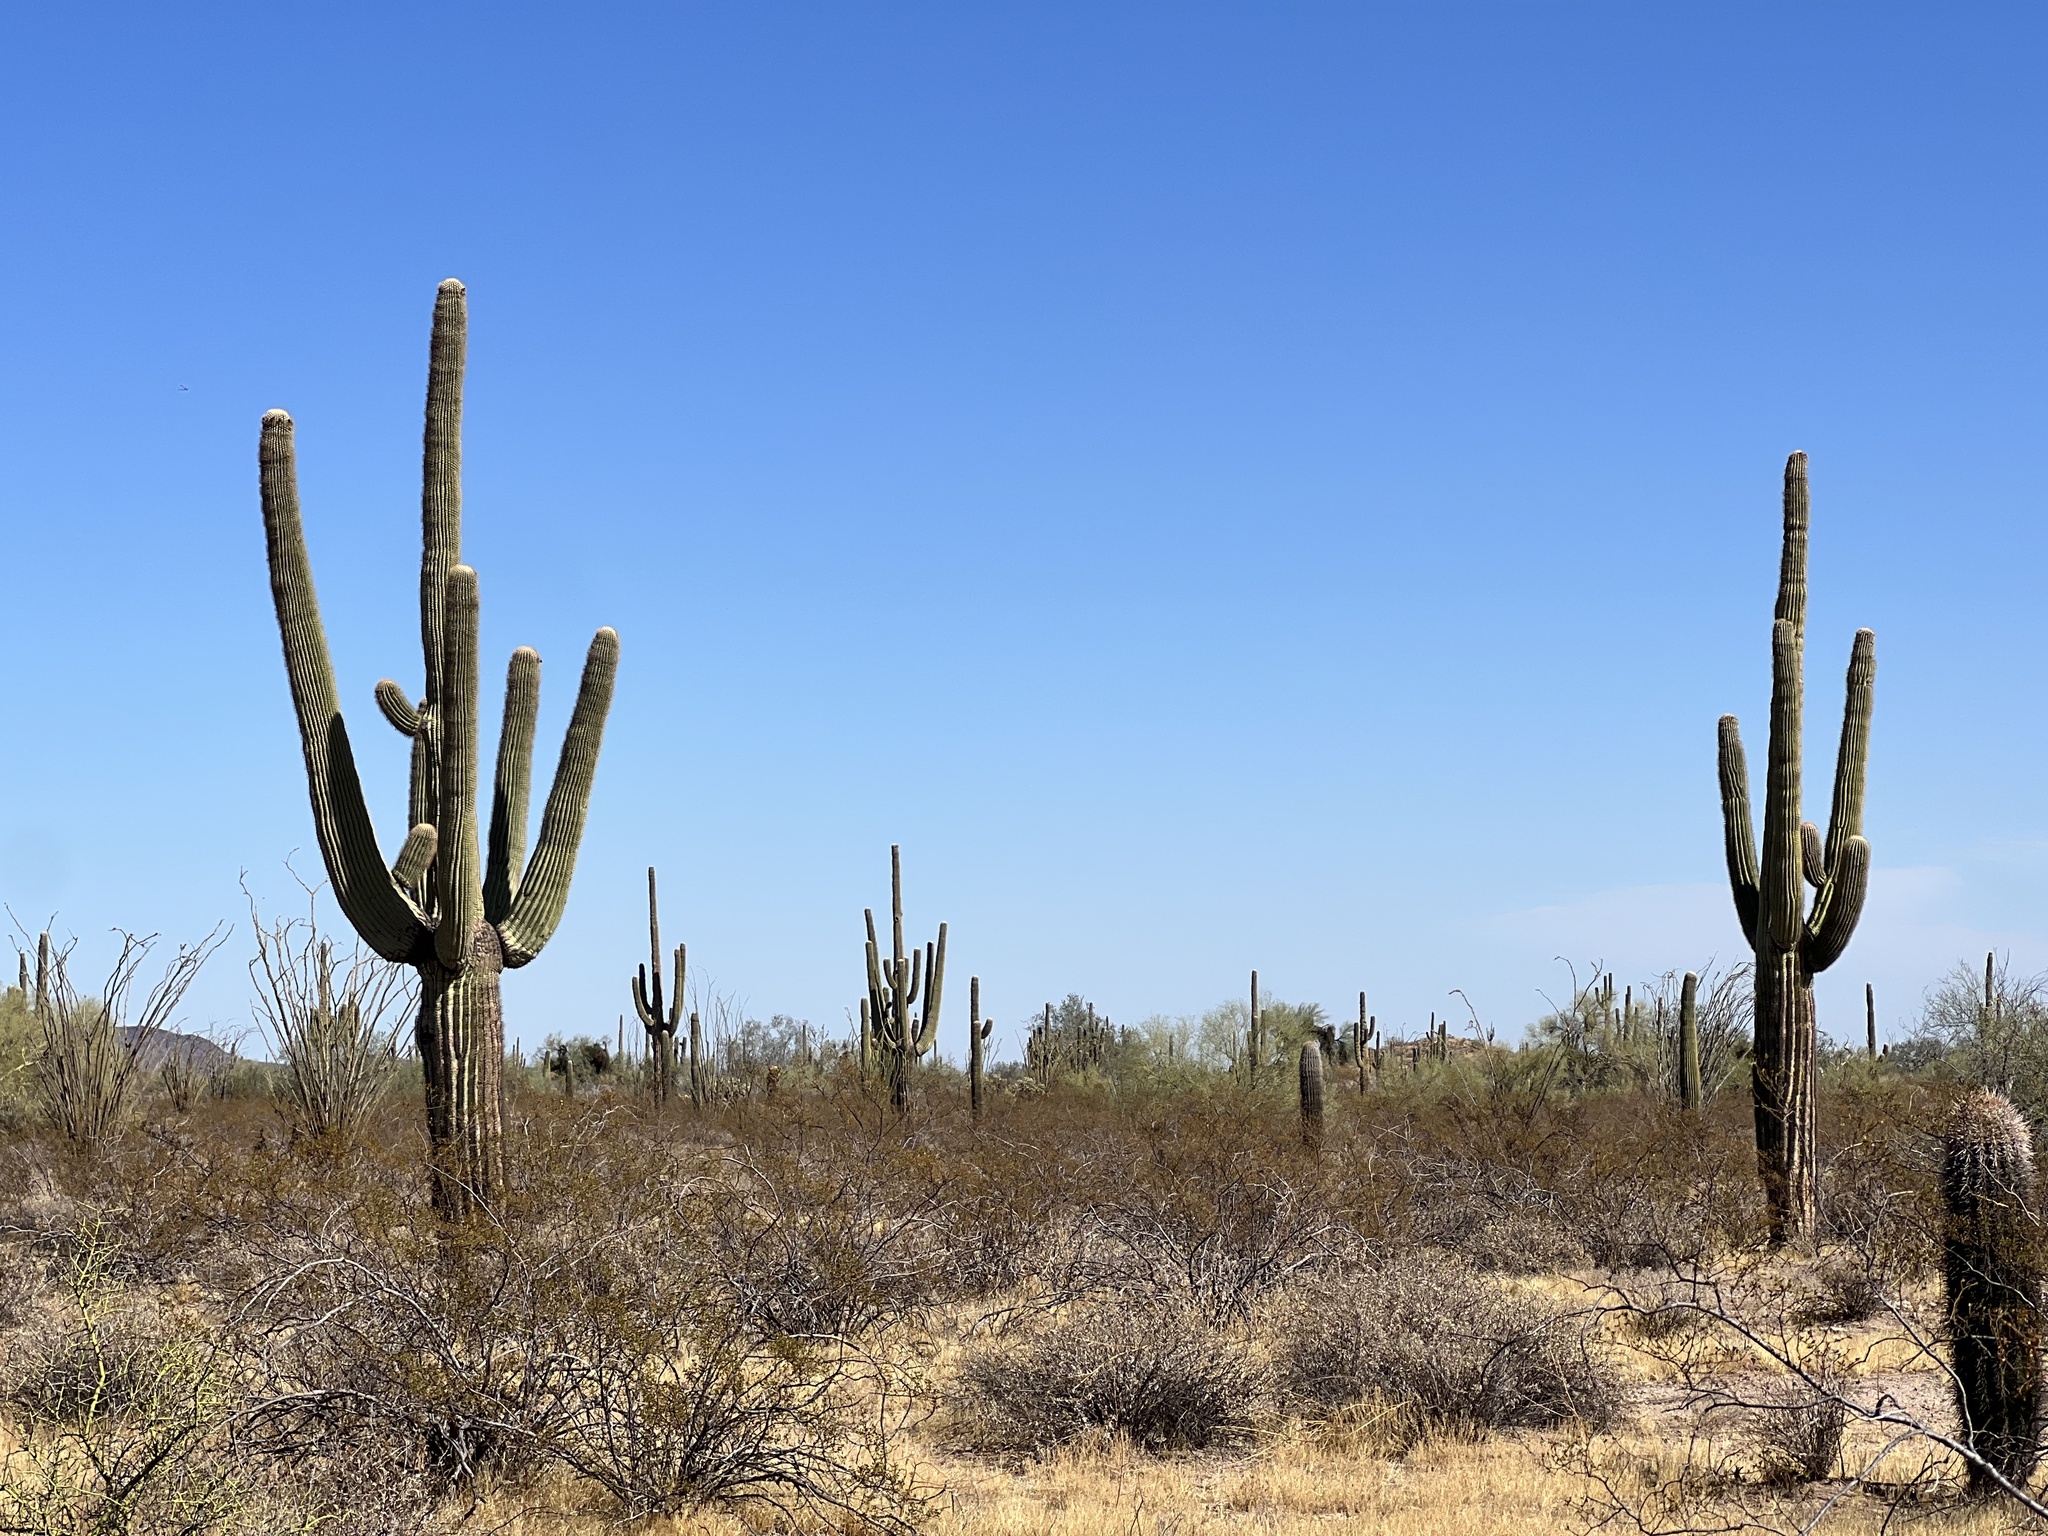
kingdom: Plantae
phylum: Tracheophyta
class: Magnoliopsida
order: Caryophyllales
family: Cactaceae
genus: Carnegiea
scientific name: Carnegiea gigantea
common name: Saguaro
